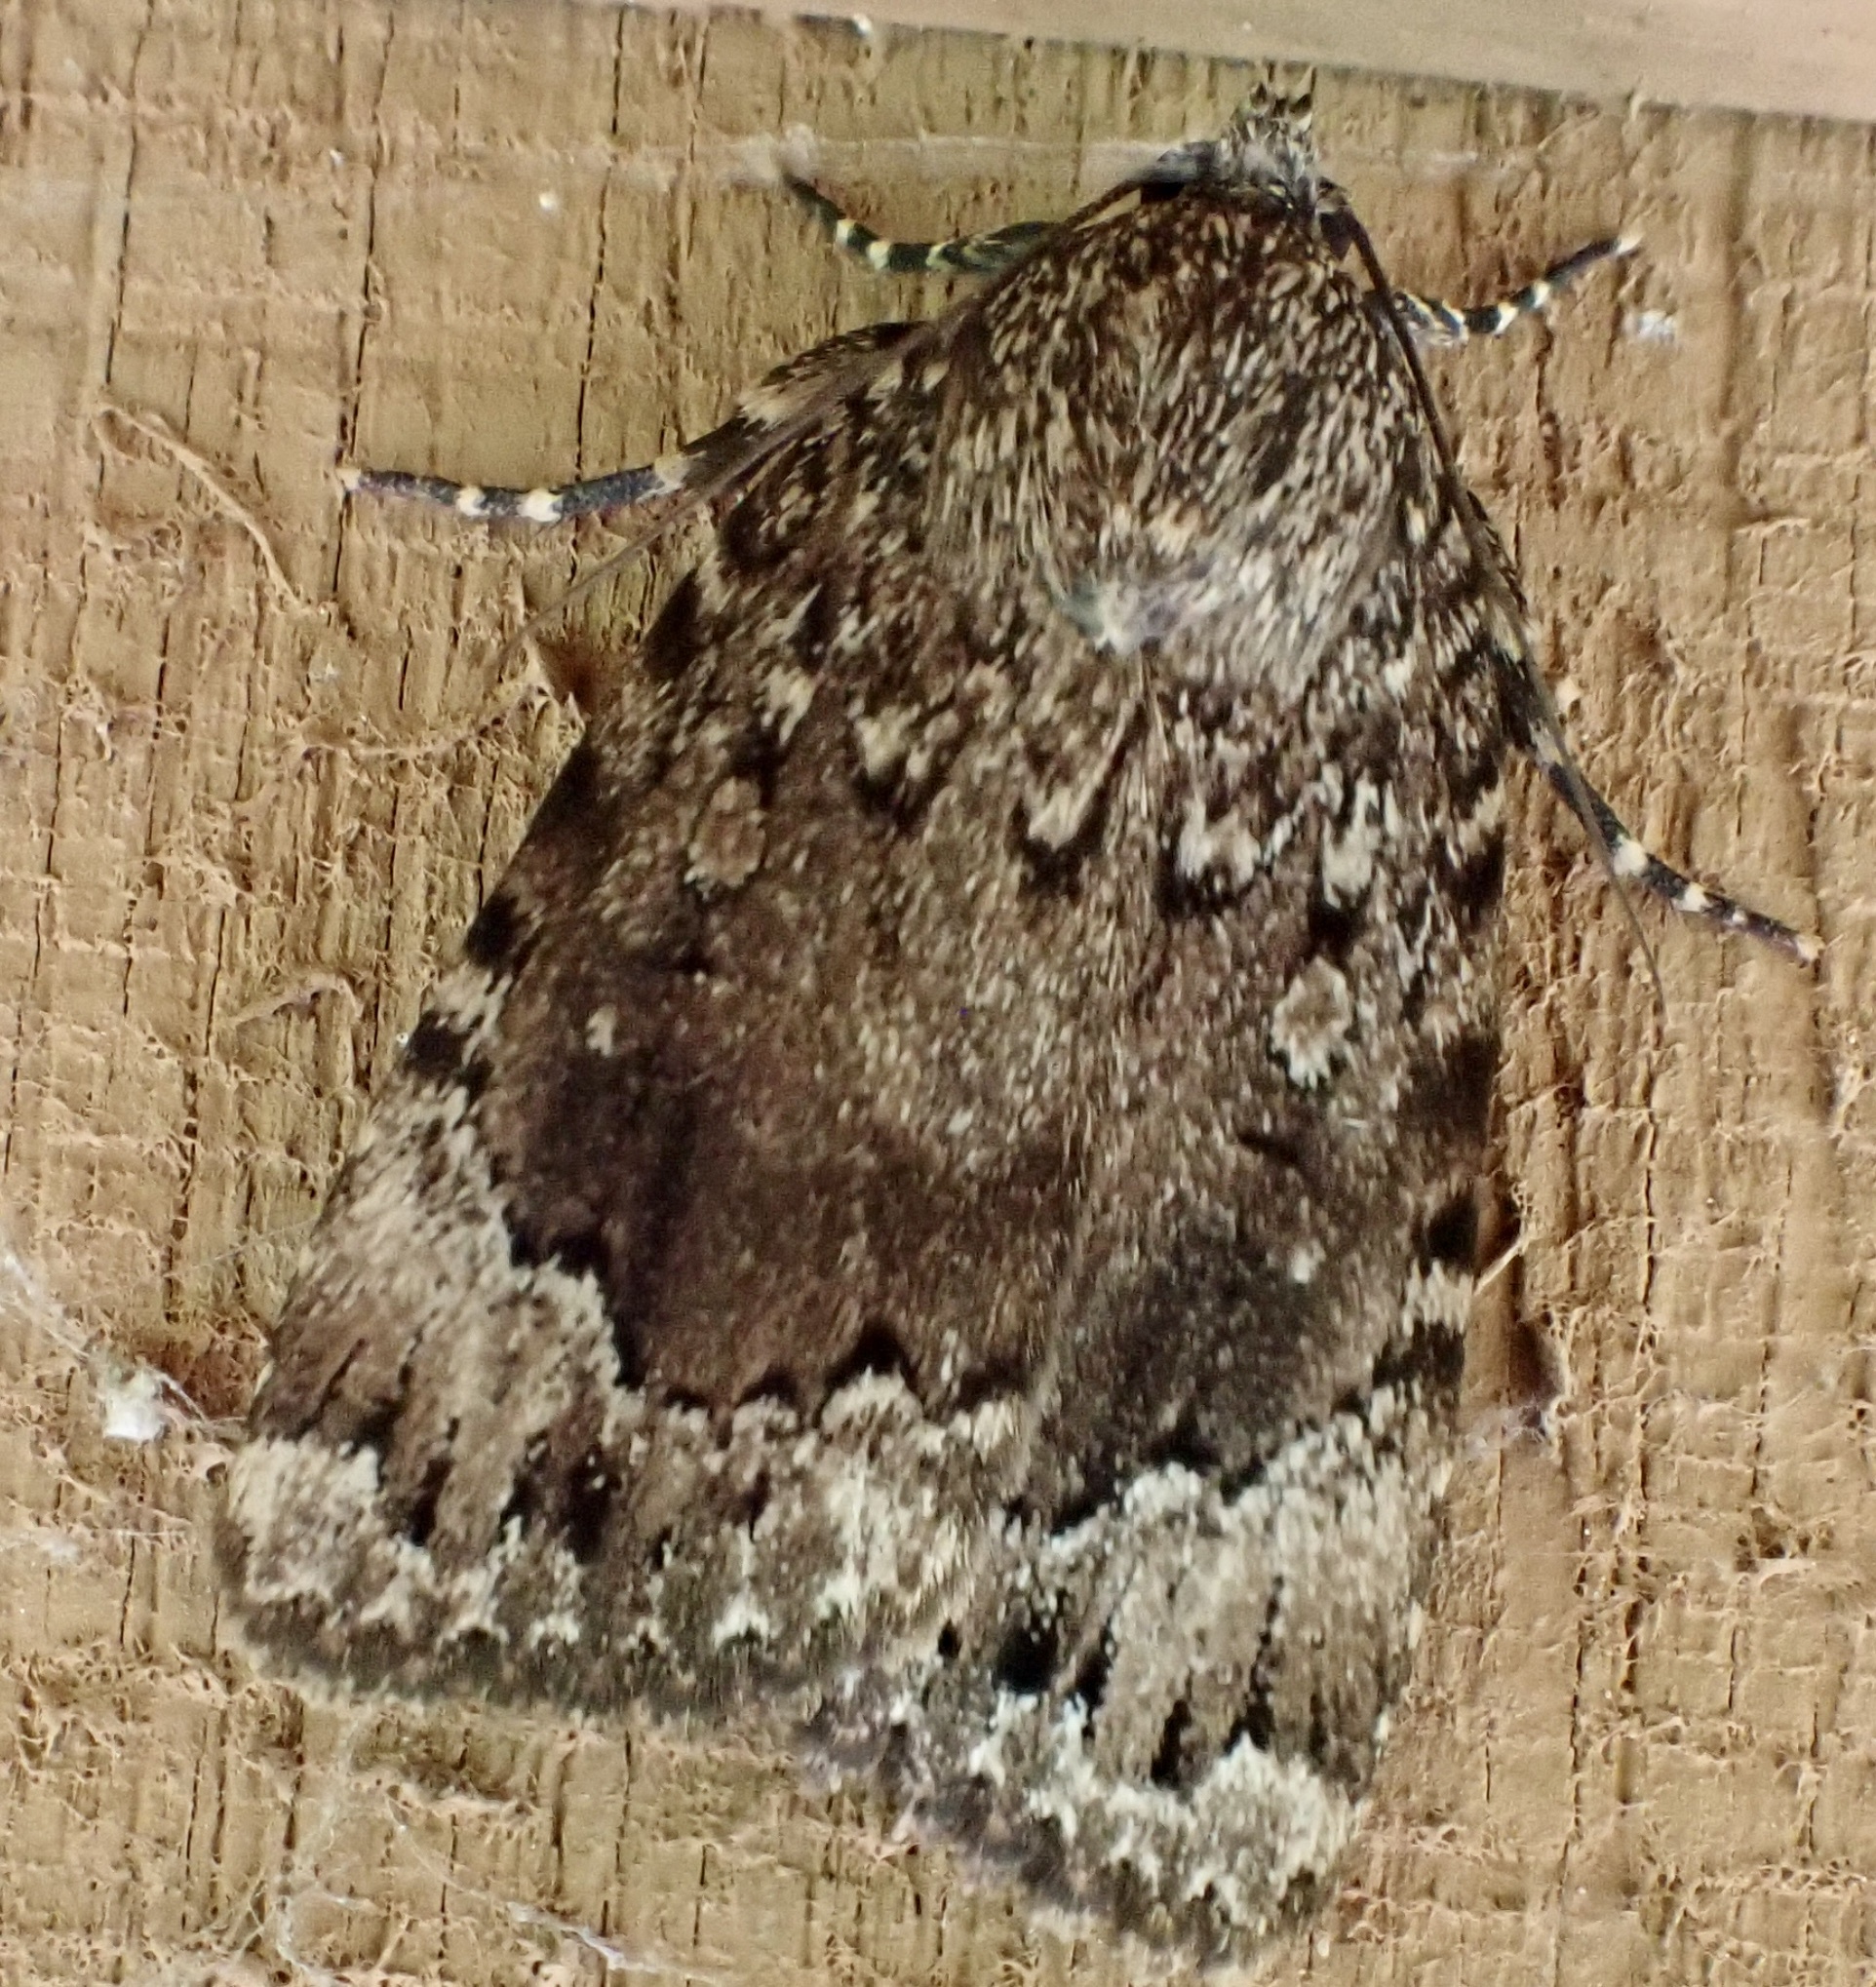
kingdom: Animalia
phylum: Arthropoda
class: Insecta
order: Lepidoptera
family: Noctuidae
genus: Amphipyra
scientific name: Amphipyra pyramidoides
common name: American copper underwing
